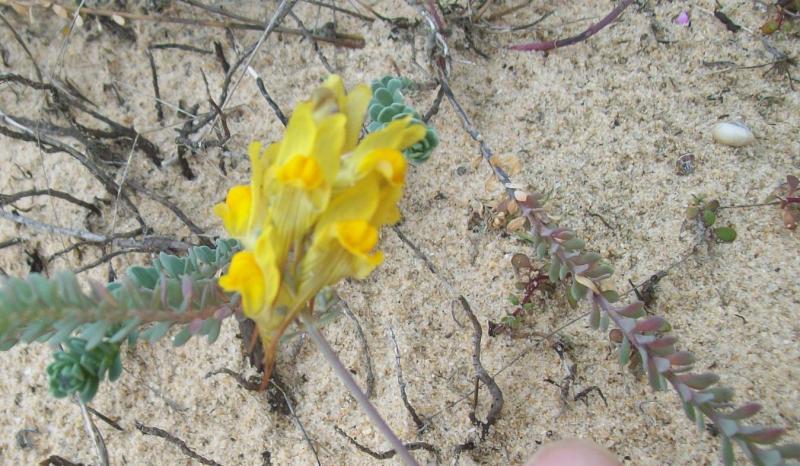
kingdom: Plantae
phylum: Tracheophyta
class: Magnoliopsida
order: Lamiales
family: Plantaginaceae
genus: Linaria
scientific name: Linaria polygalifolia
